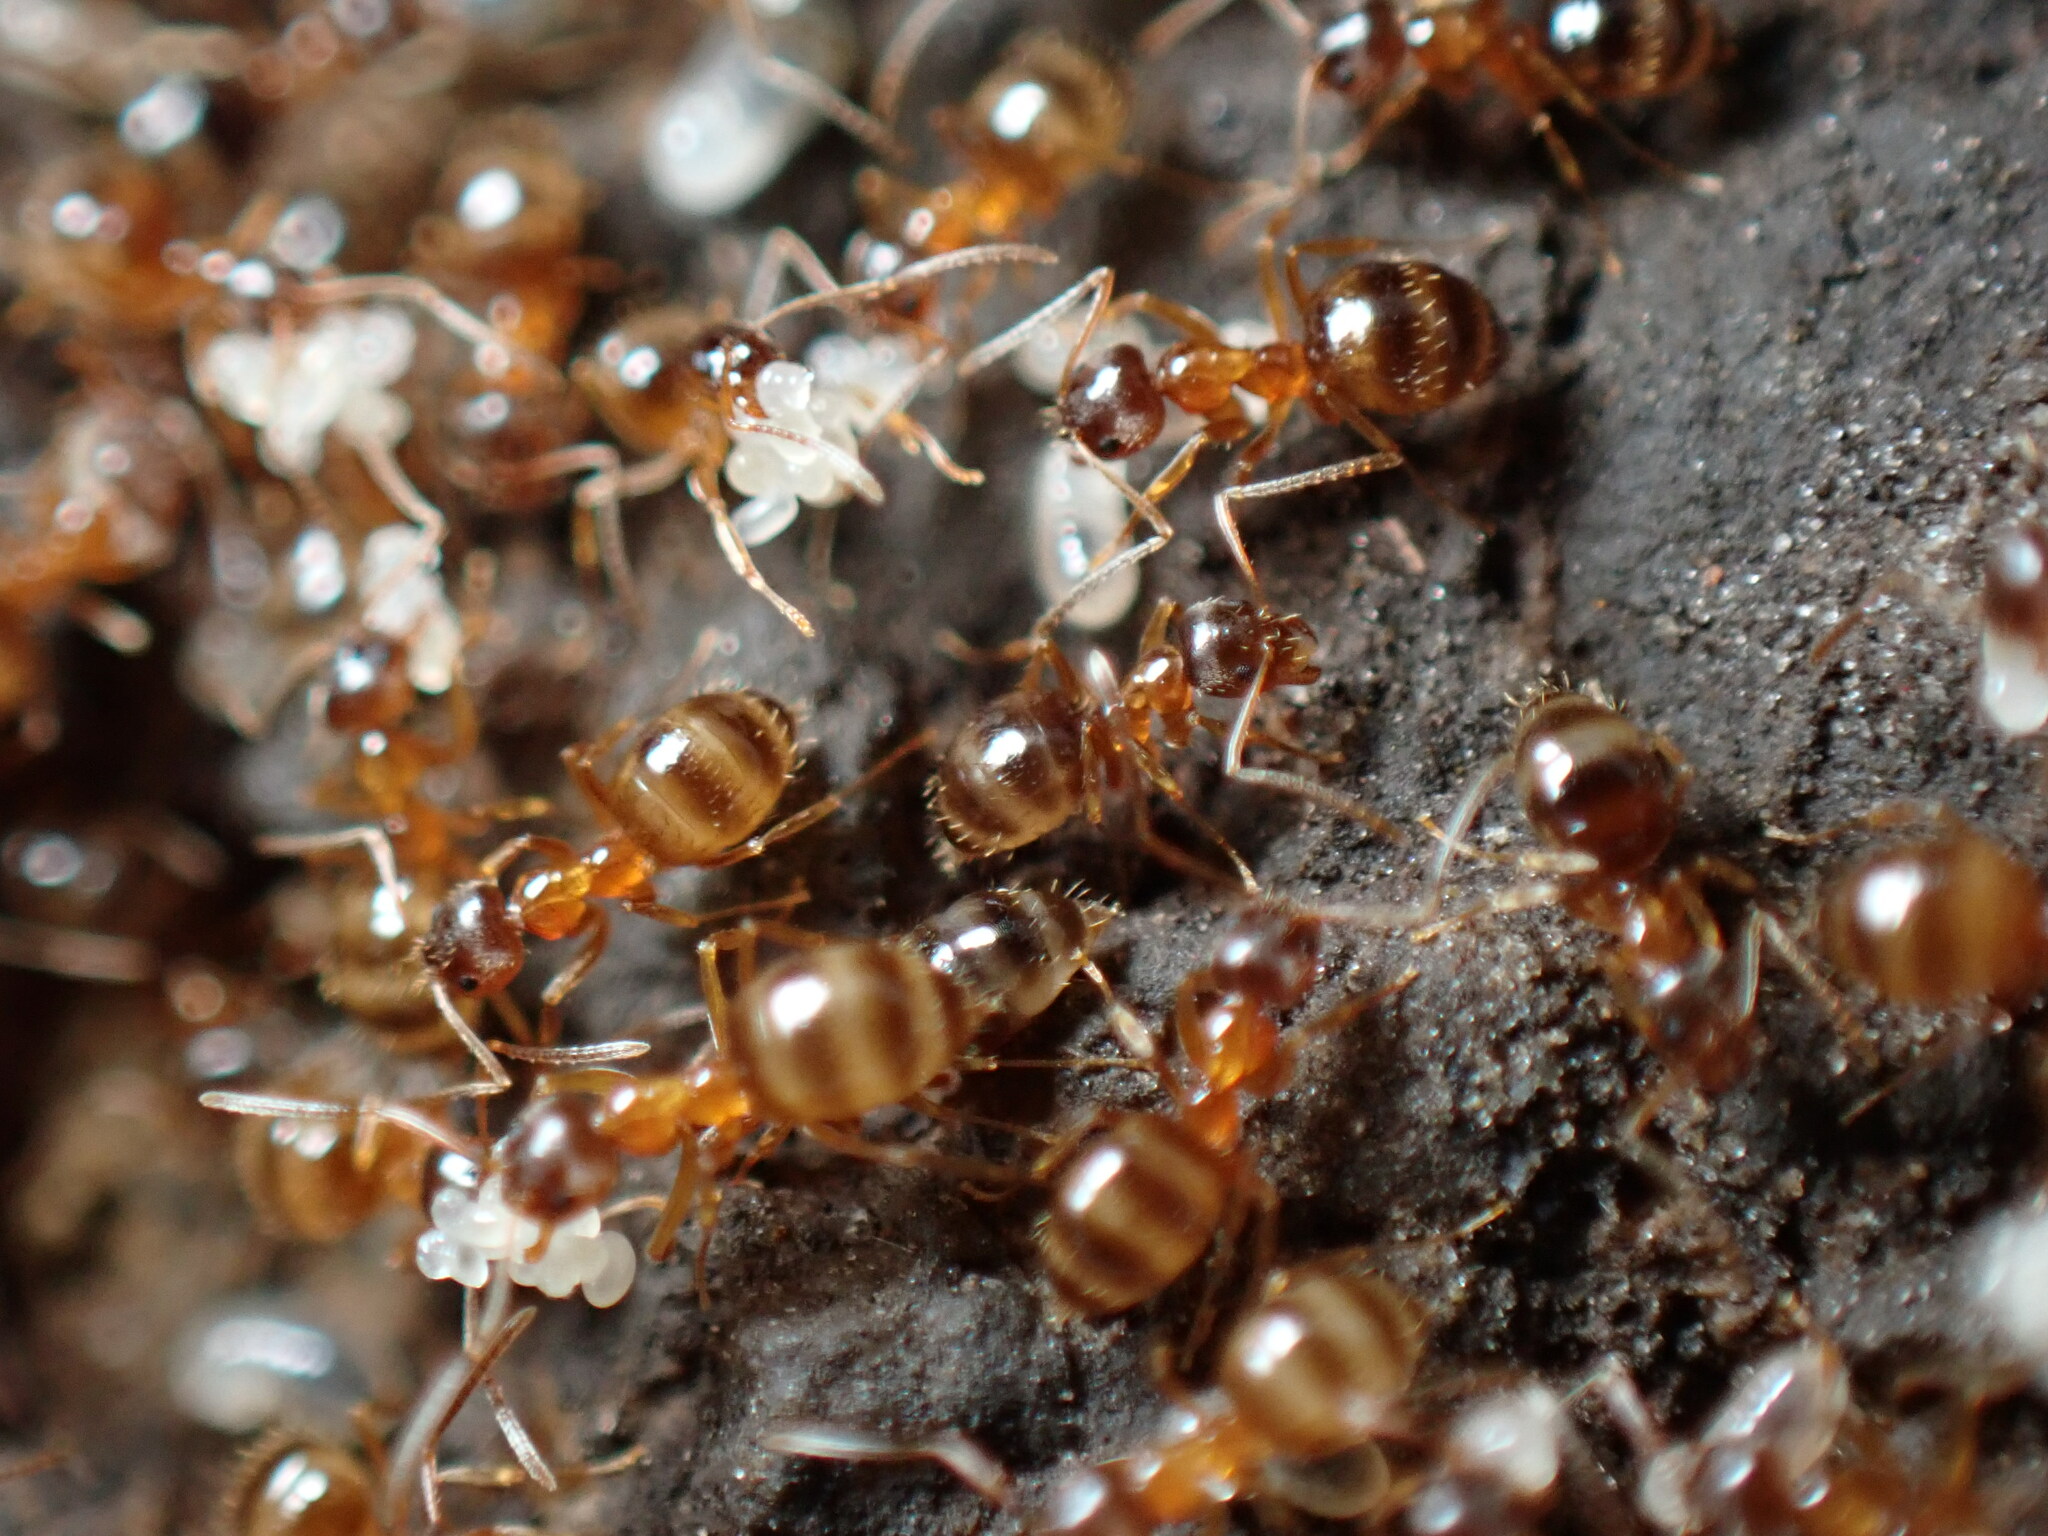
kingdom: Animalia
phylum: Arthropoda
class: Insecta
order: Hymenoptera
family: Formicidae
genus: Paratrechina
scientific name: Paratrechina flavipes
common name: Eastern asian formicine ant
